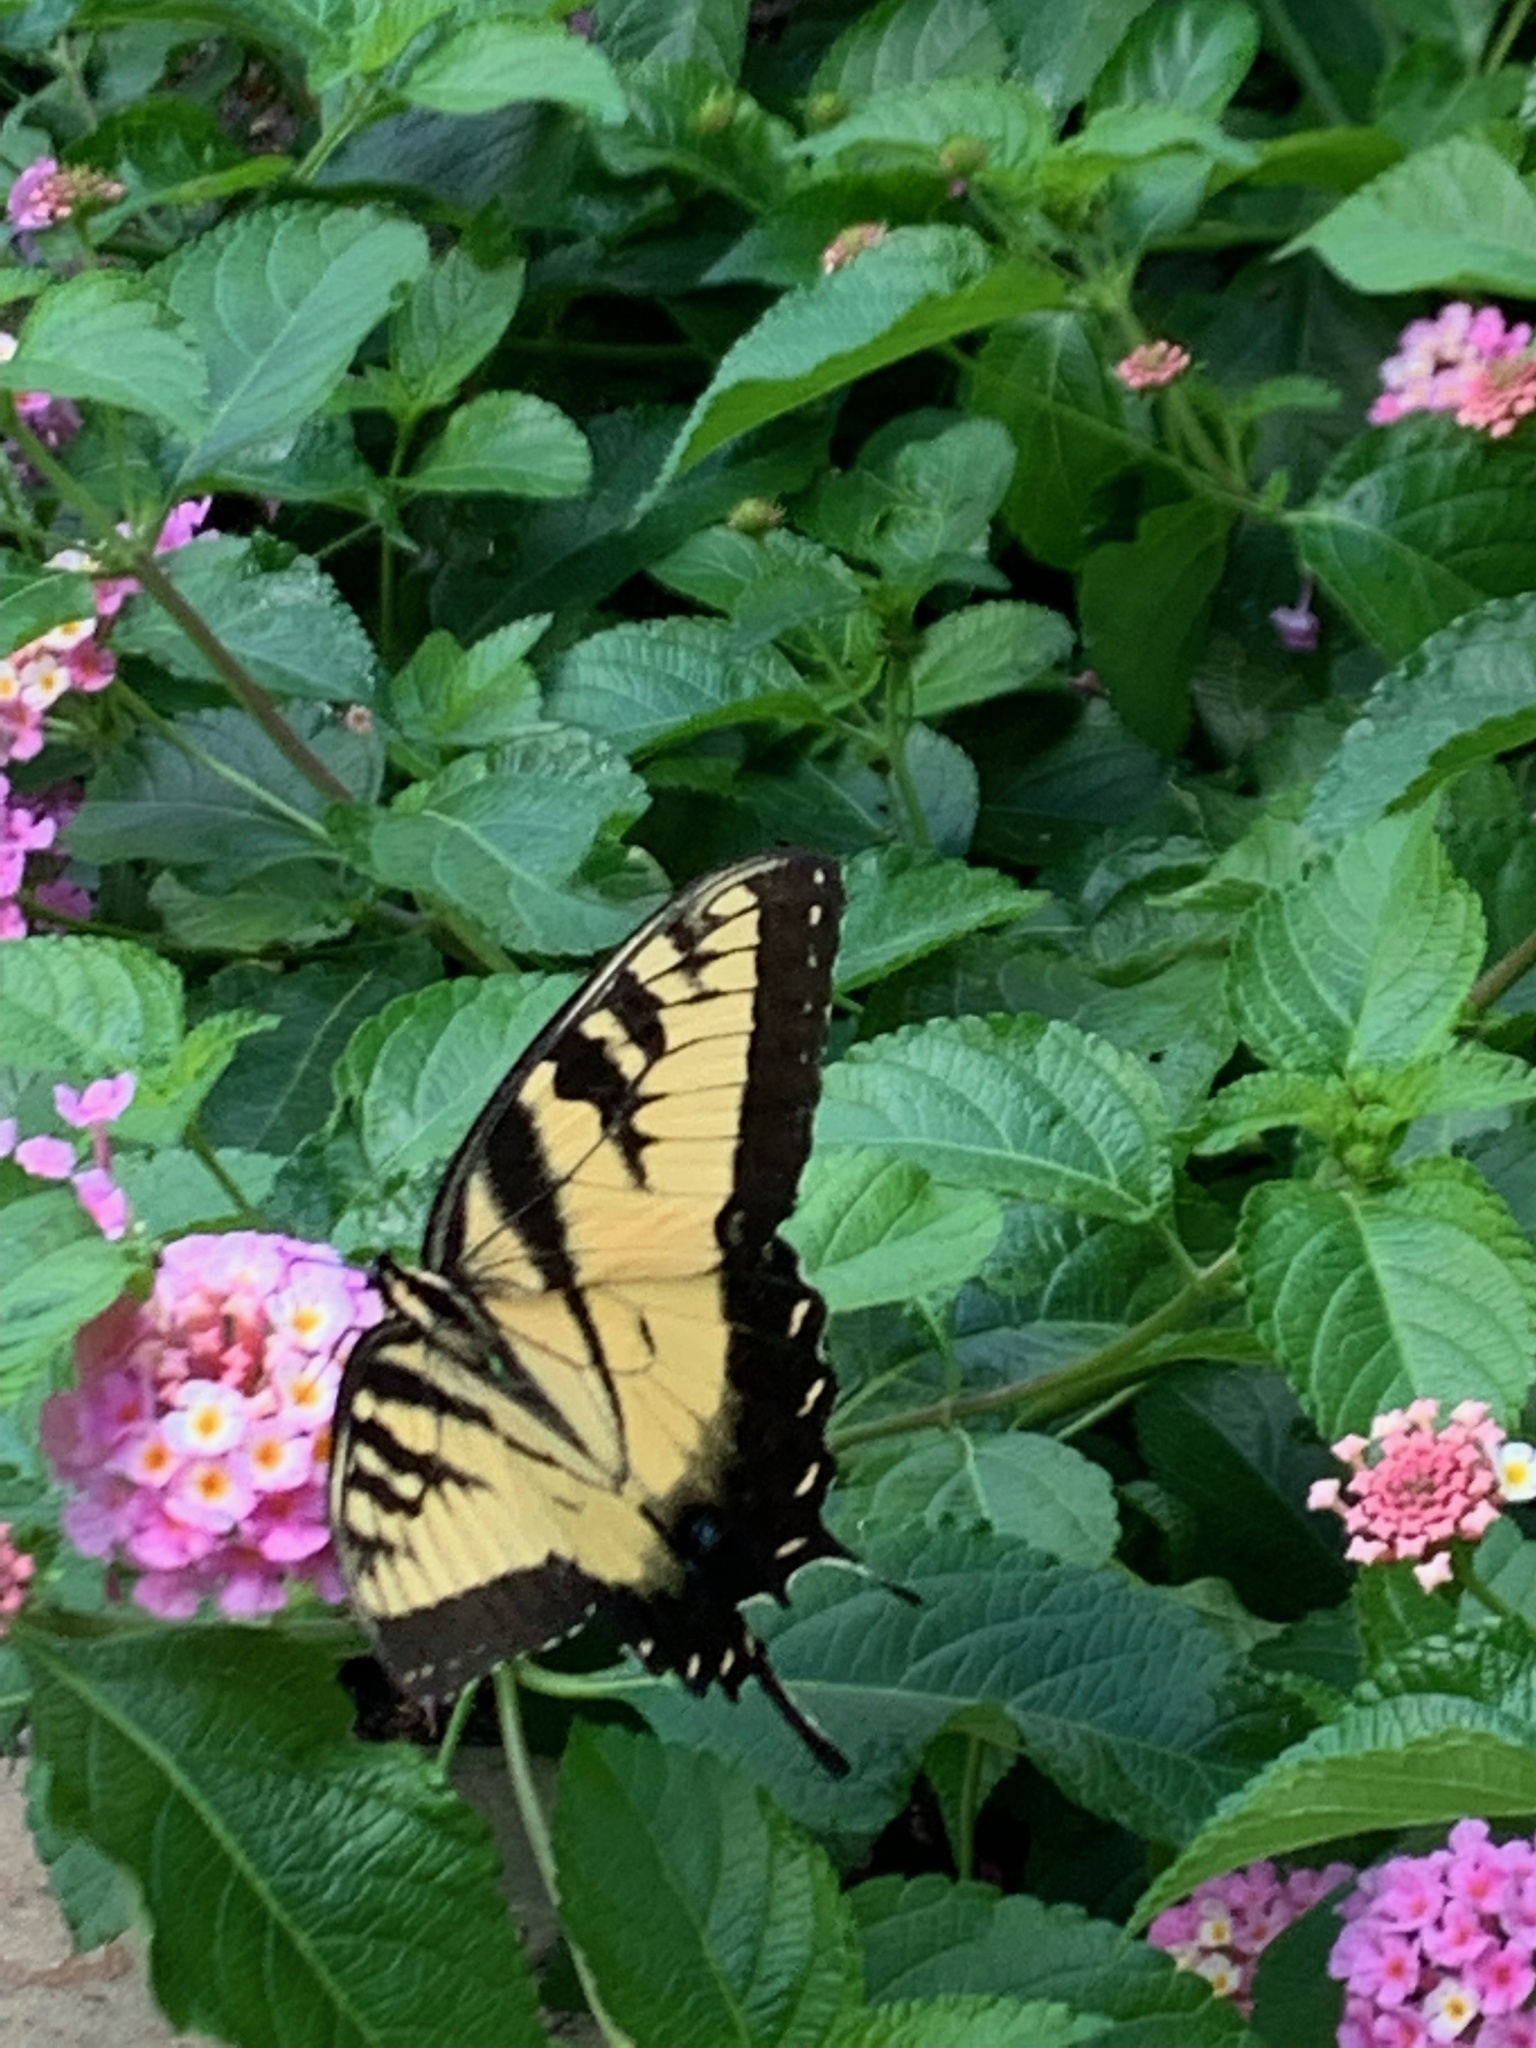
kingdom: Animalia
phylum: Arthropoda
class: Insecta
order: Lepidoptera
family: Papilionidae
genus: Papilio
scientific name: Papilio glaucus
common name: Tiger swallowtail
